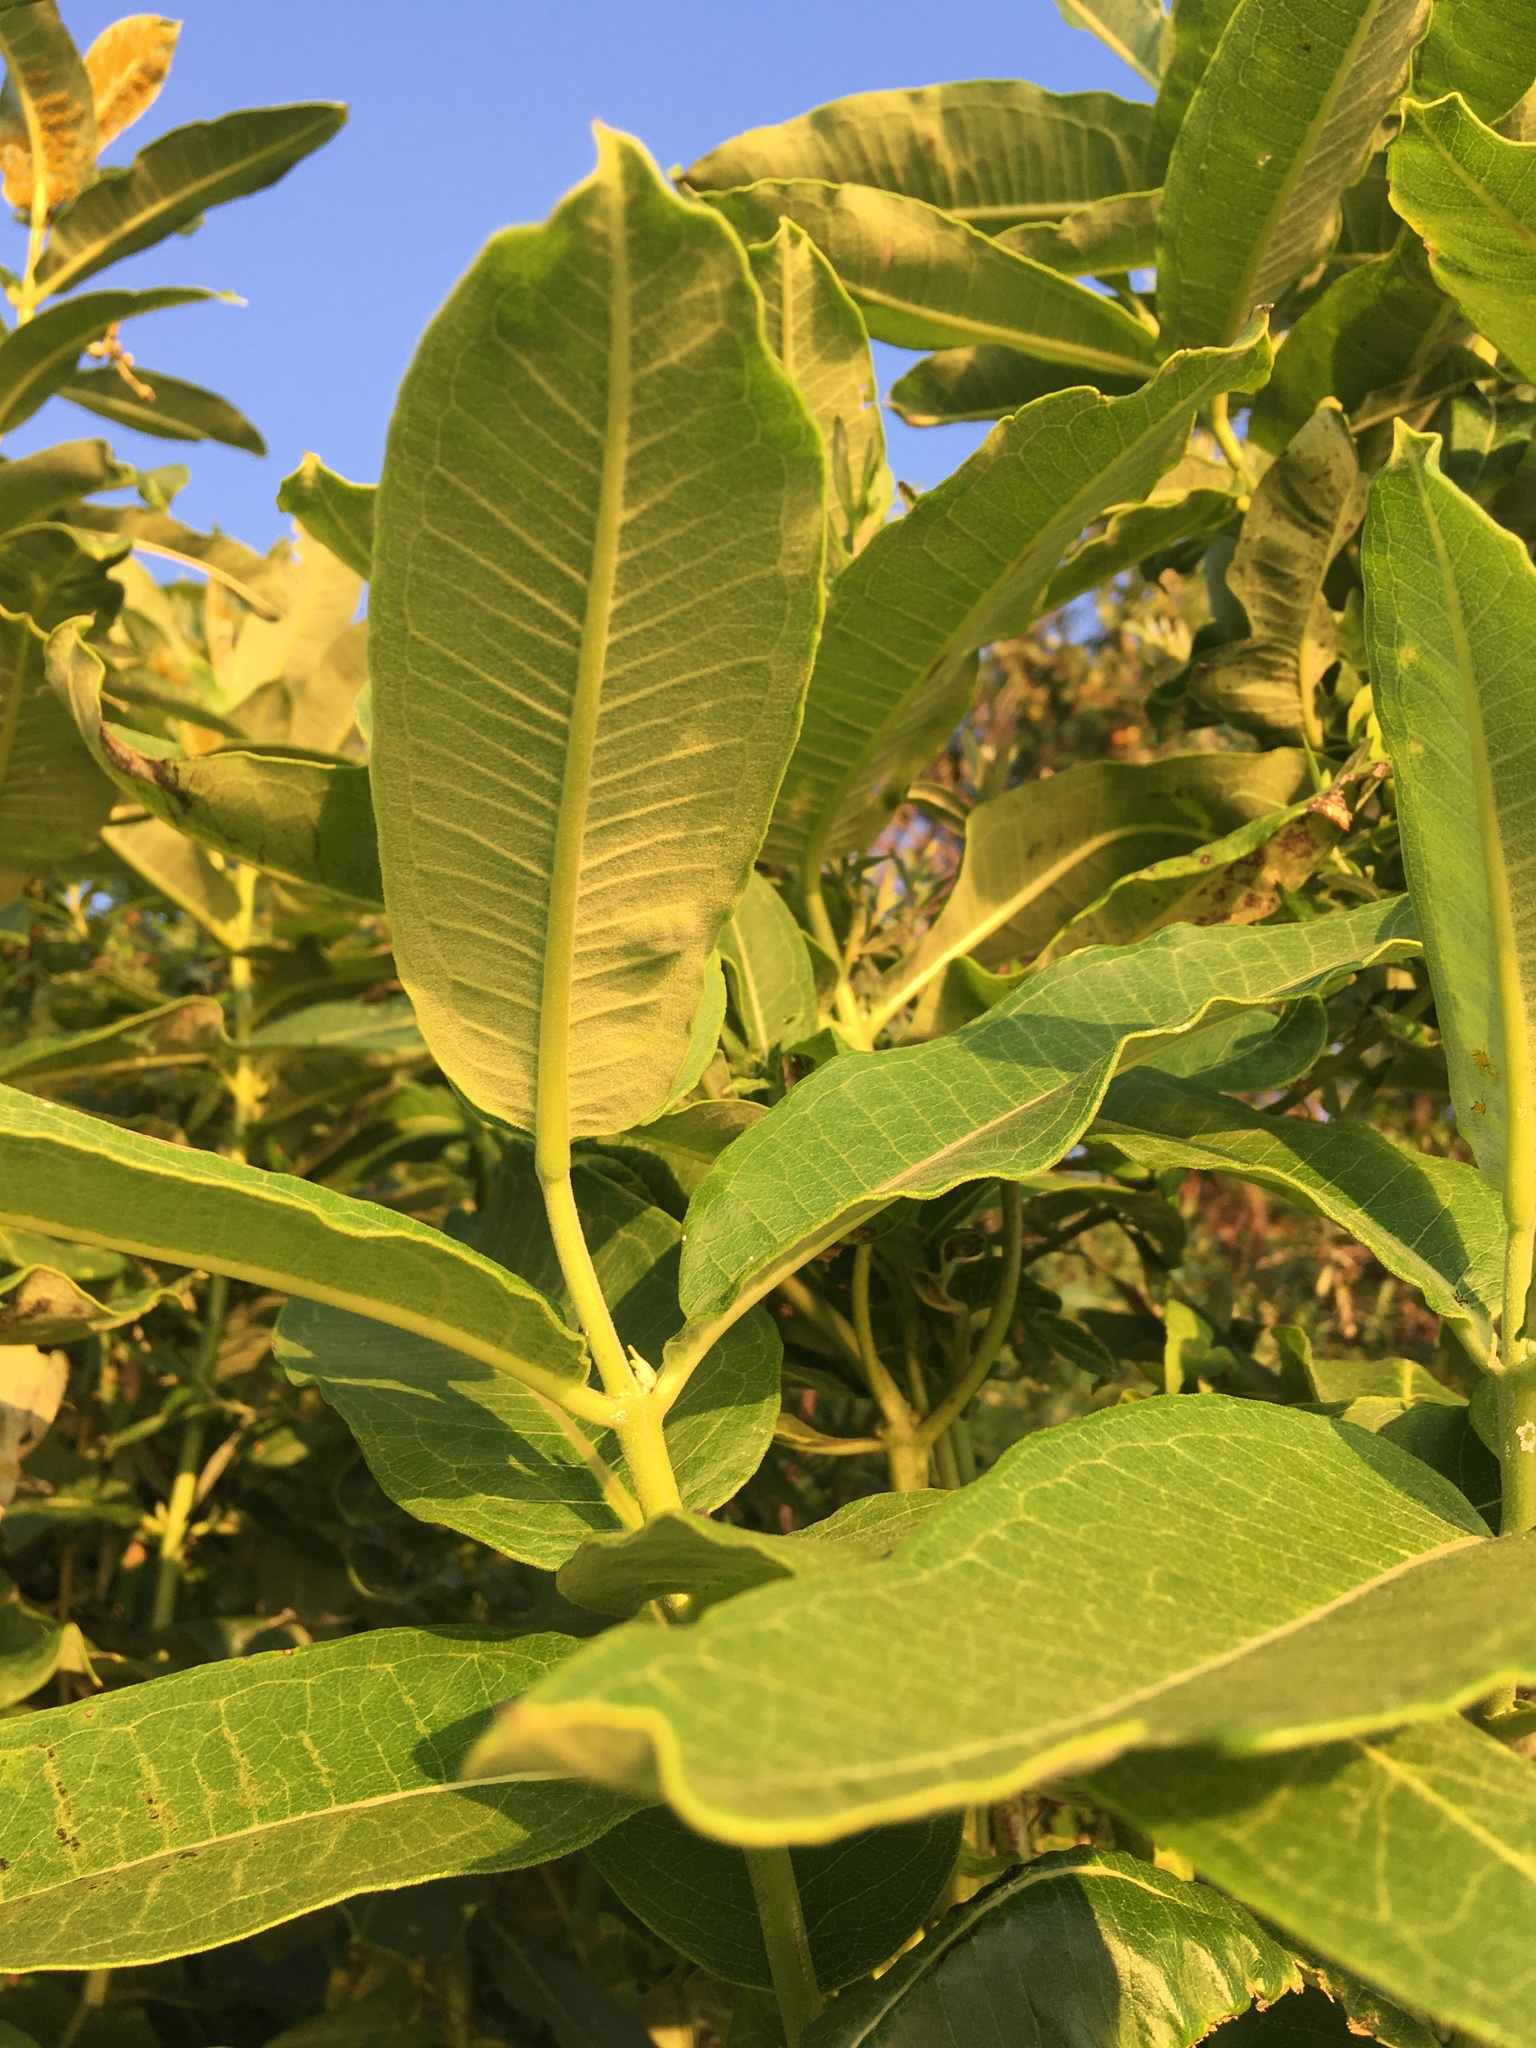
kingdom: Plantae
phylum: Tracheophyta
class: Magnoliopsida
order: Gentianales
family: Apocynaceae
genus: Asclepias
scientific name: Asclepias syriaca
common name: Common milkweed
